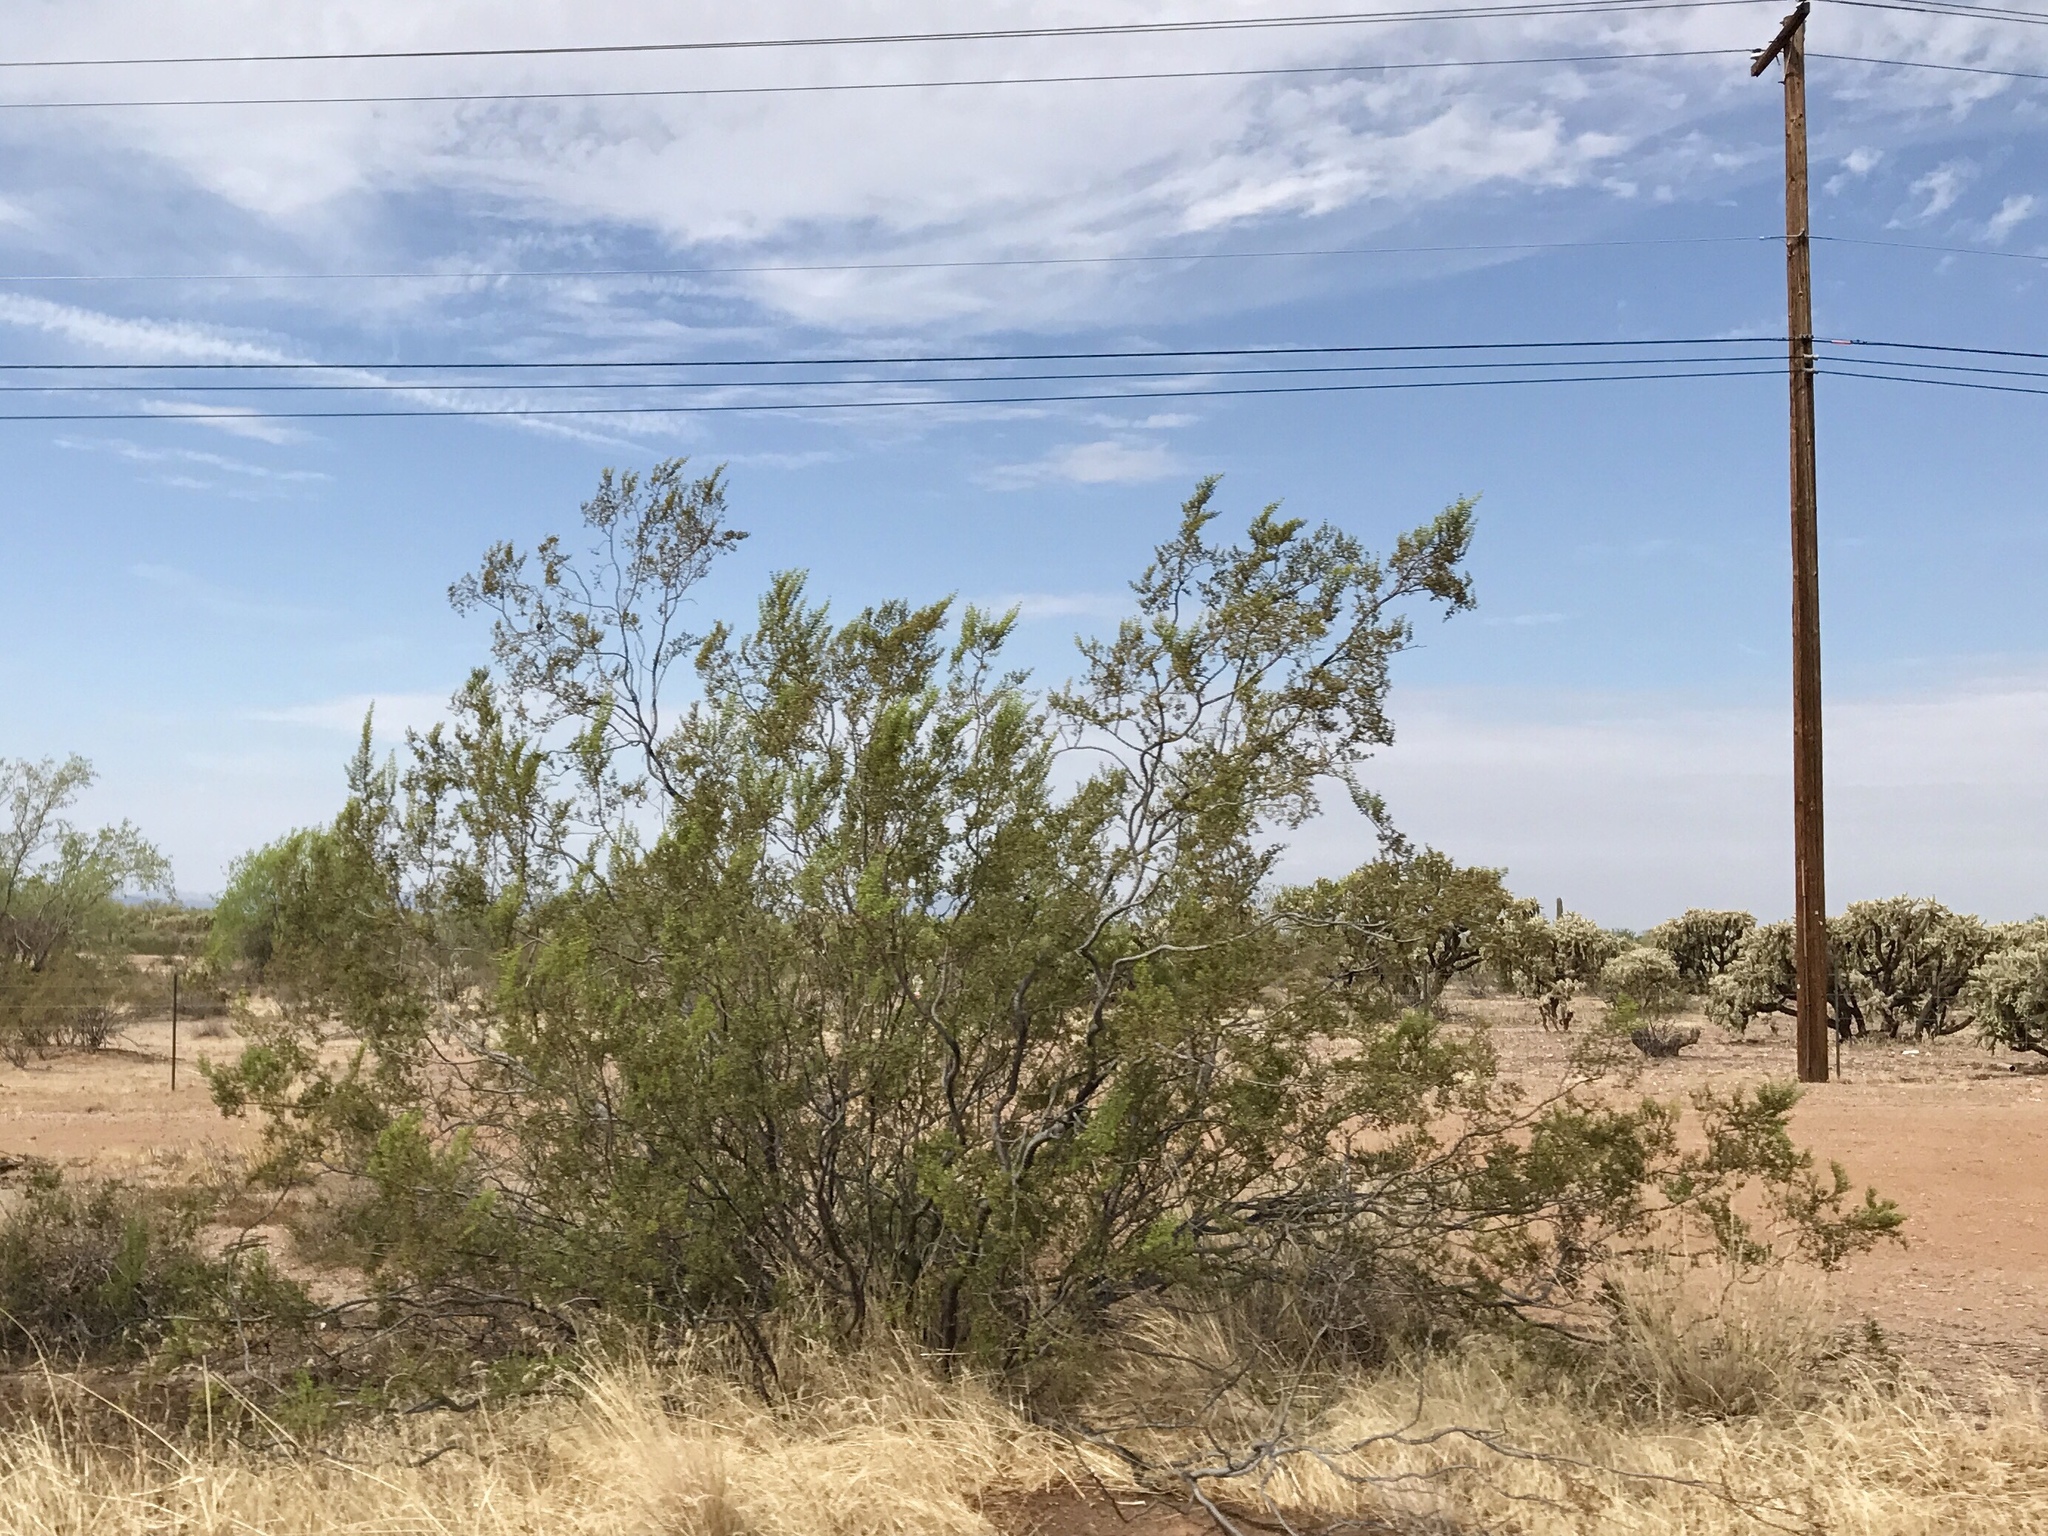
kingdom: Plantae
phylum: Tracheophyta
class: Magnoliopsida
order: Zygophyllales
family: Zygophyllaceae
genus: Larrea
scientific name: Larrea tridentata
